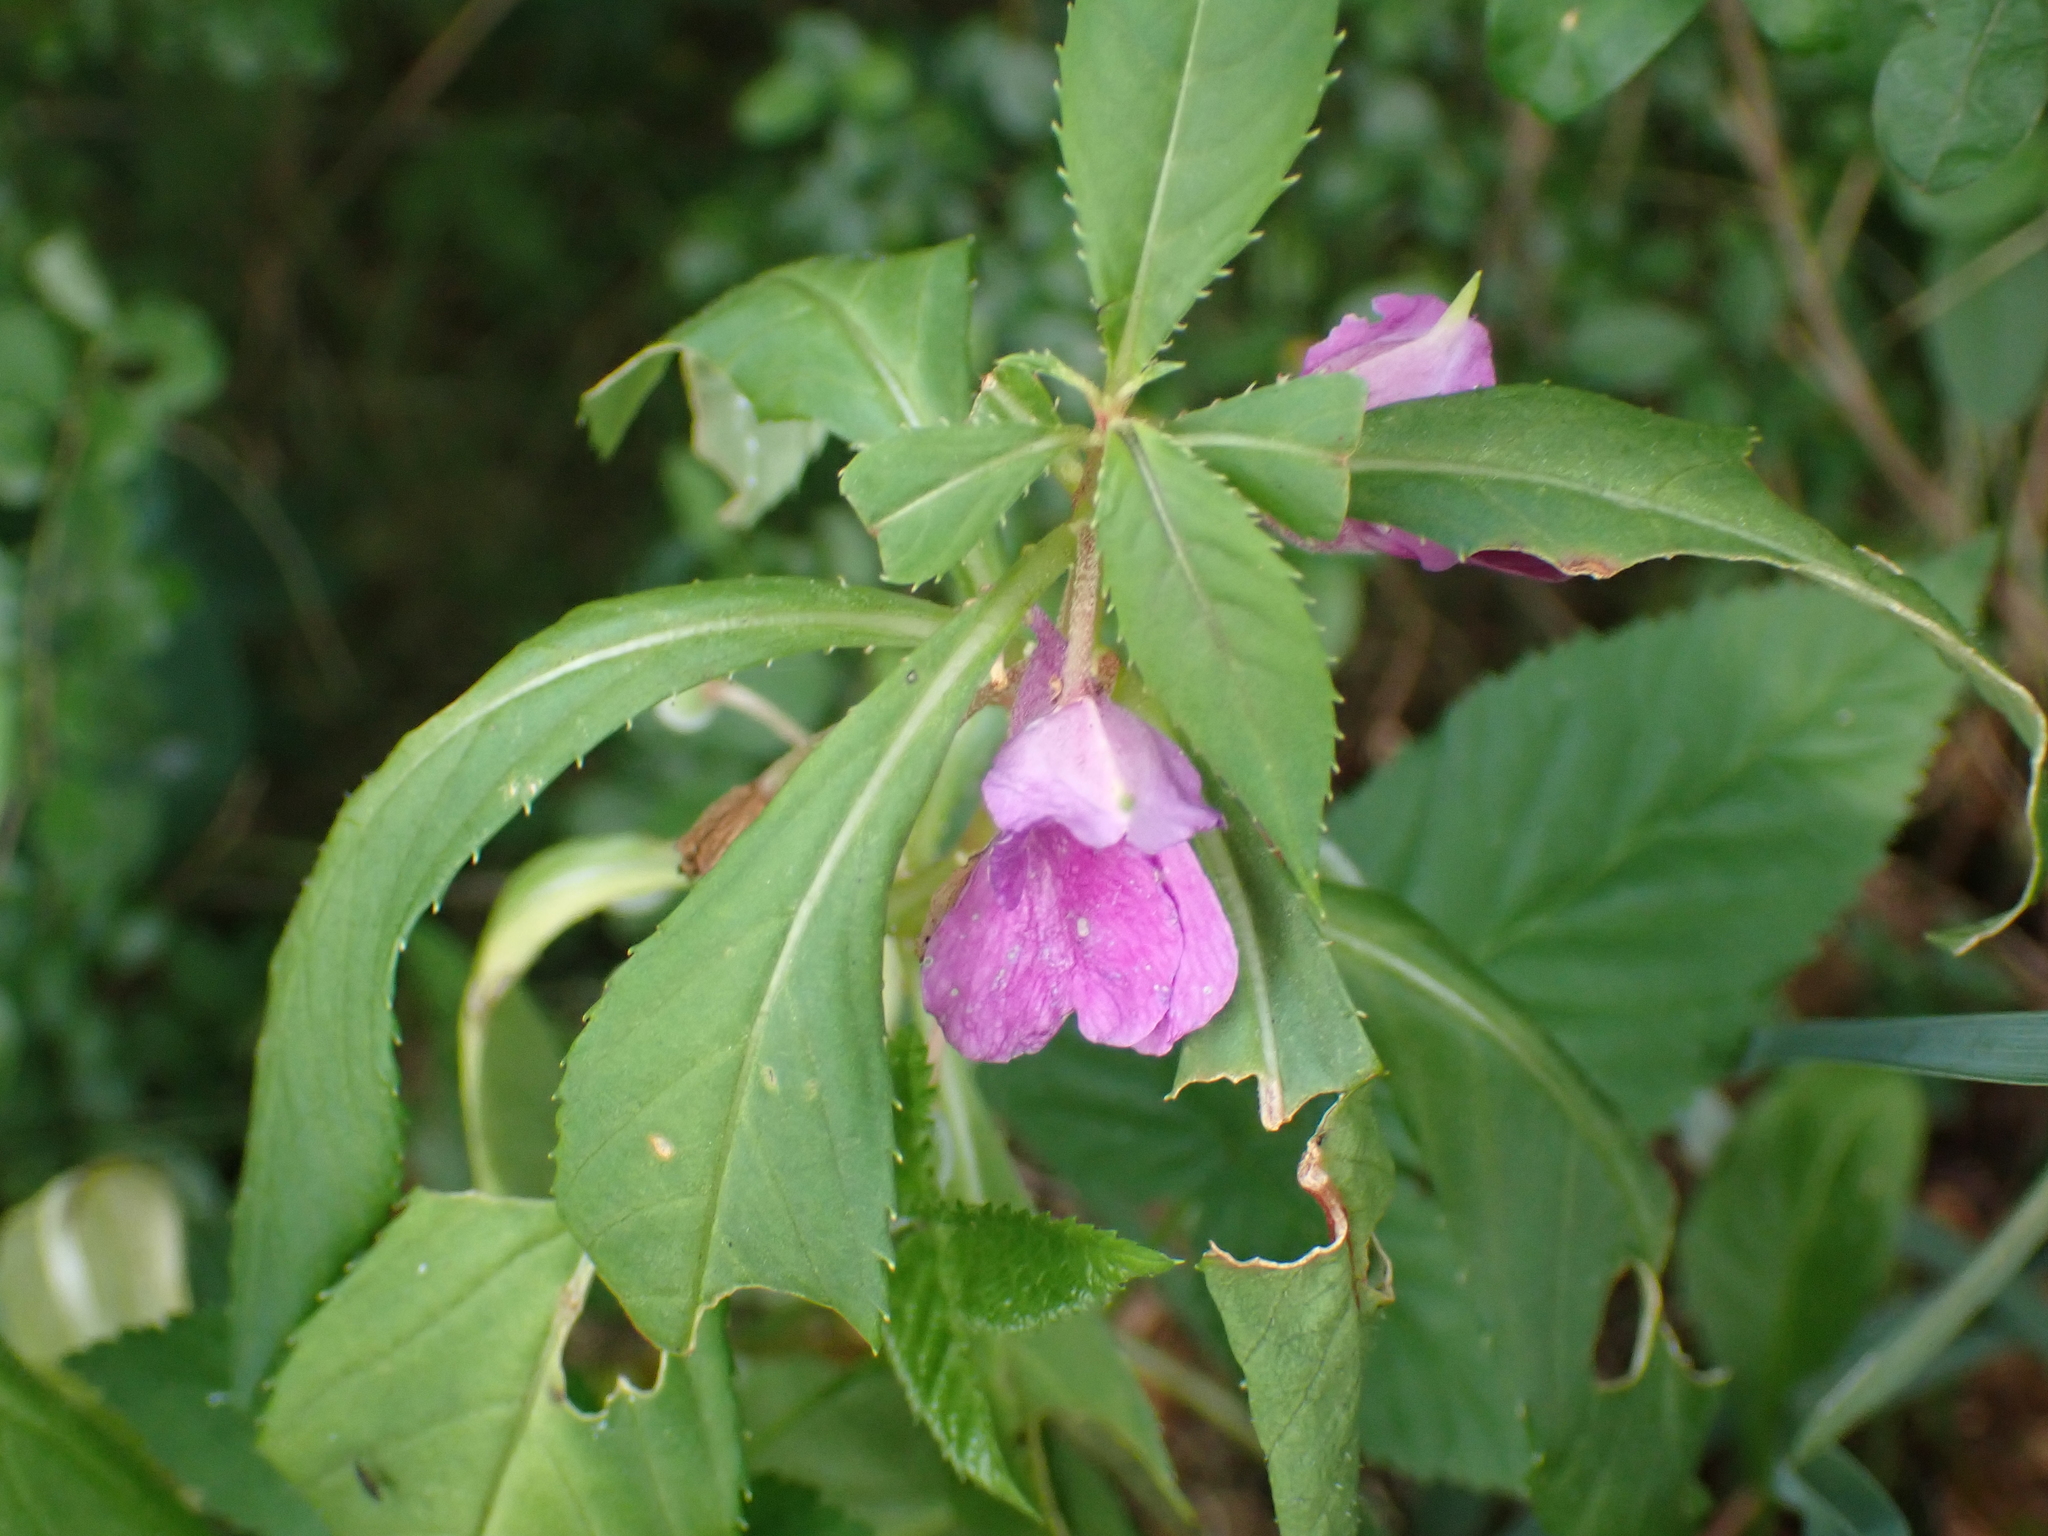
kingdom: Plantae
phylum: Tracheophyta
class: Magnoliopsida
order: Ericales
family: Balsaminaceae
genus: Impatiens
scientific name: Impatiens balsamina
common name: Balsam
